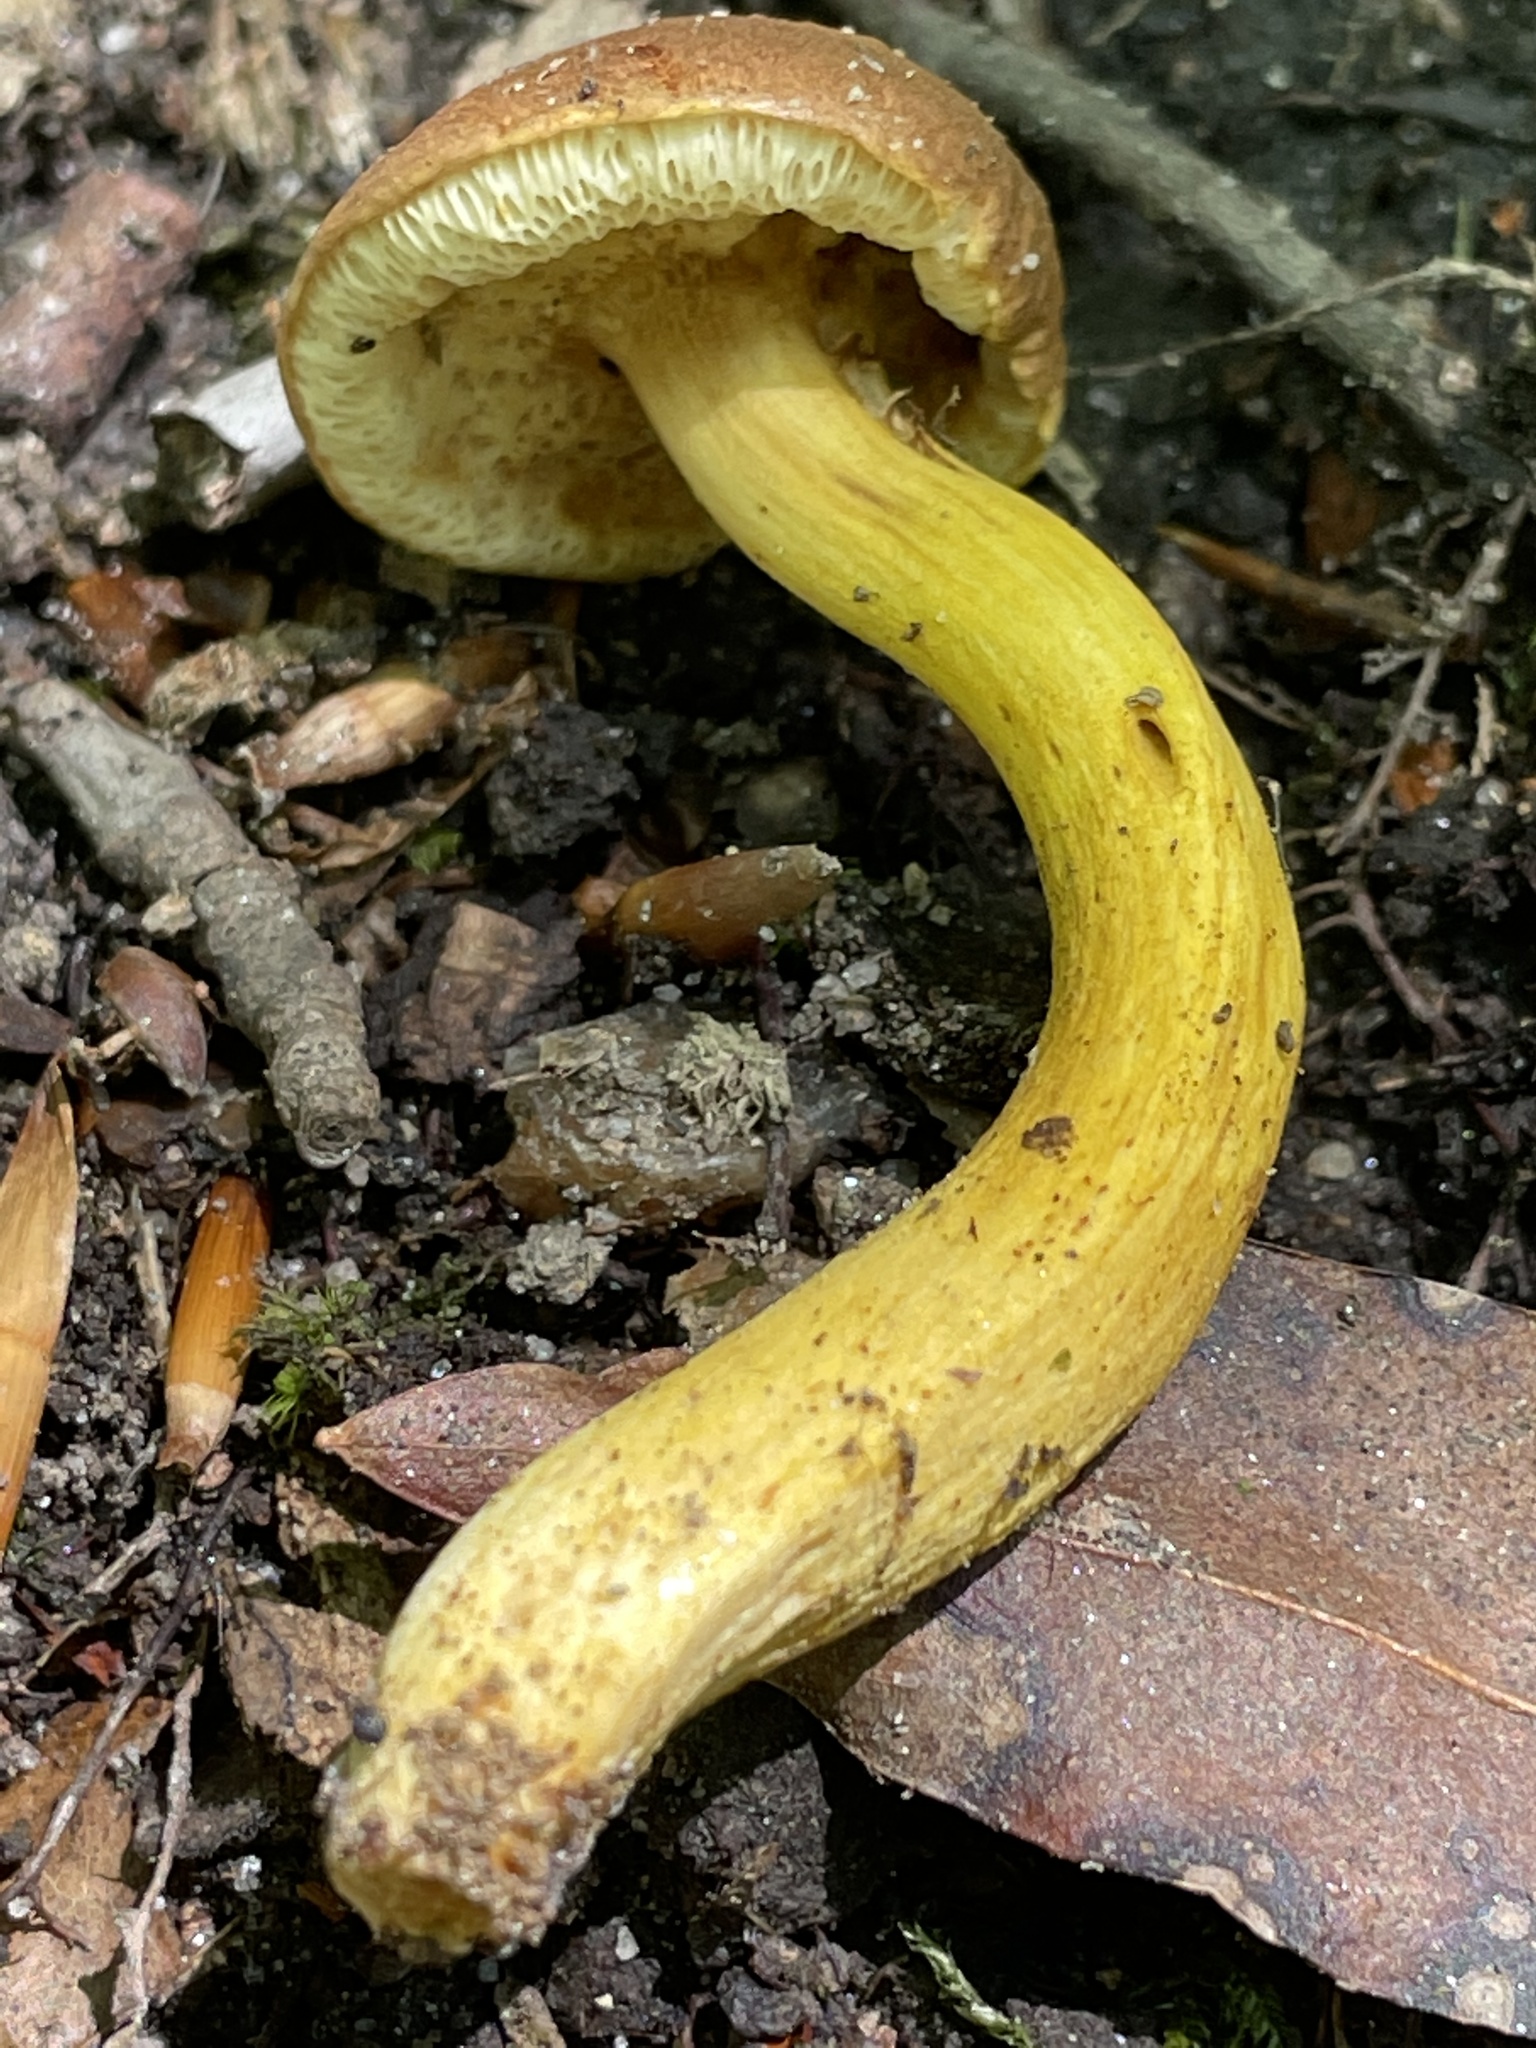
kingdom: Fungi
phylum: Basidiomycota
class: Agaricomycetes
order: Boletales
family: Boletaceae
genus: Aureoboletus
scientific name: Aureoboletus roxanae
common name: Roxane's bolete
